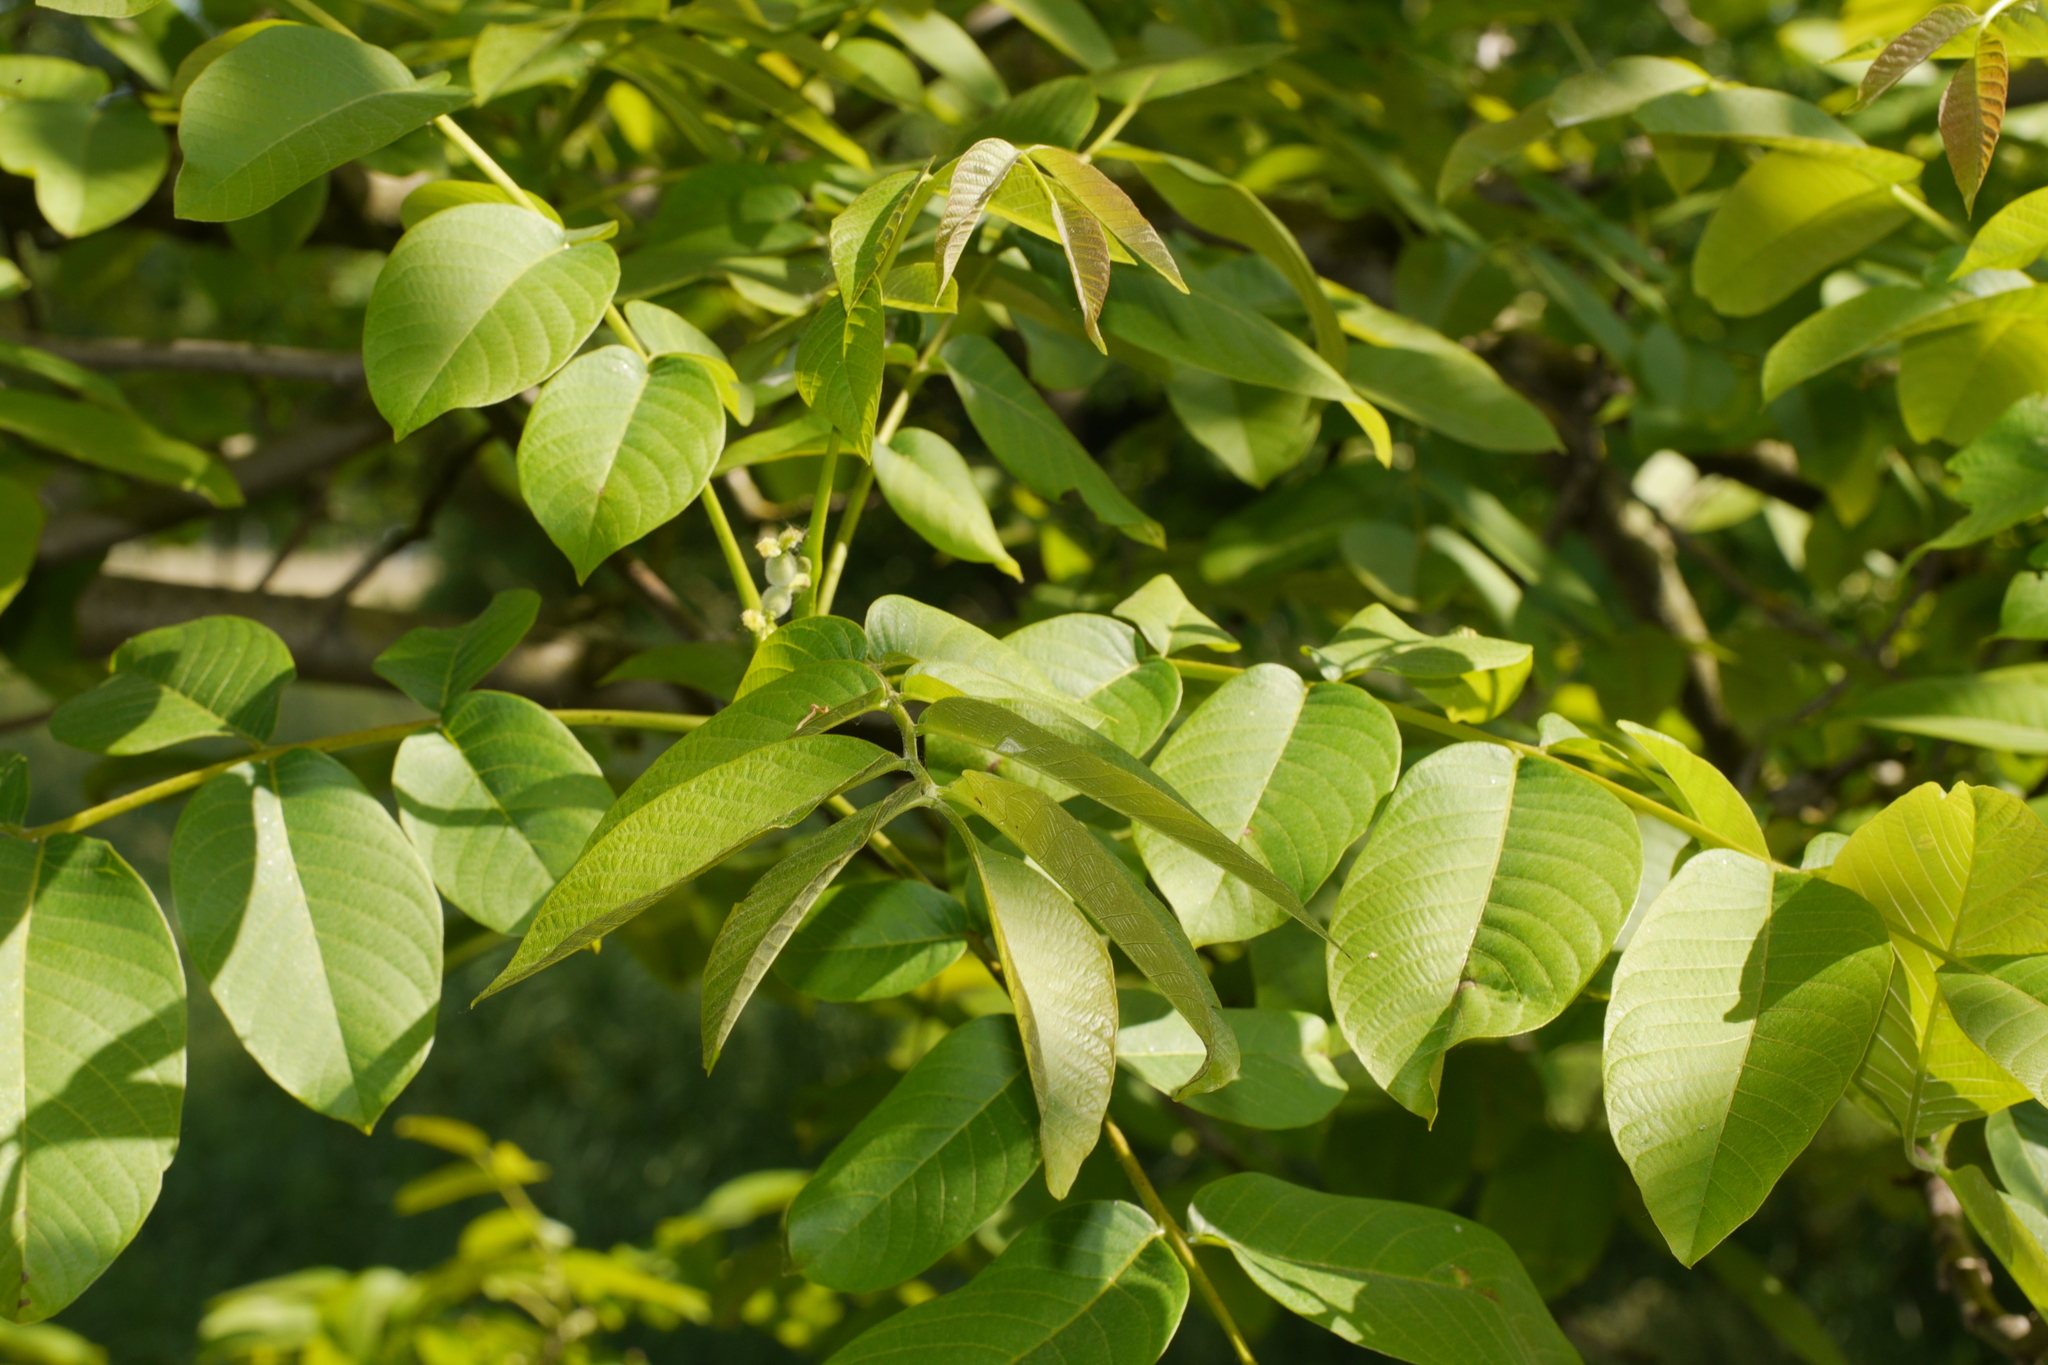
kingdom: Plantae
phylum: Tracheophyta
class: Magnoliopsida
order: Fagales
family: Juglandaceae
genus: Juglans
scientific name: Juglans regia
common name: Walnut
